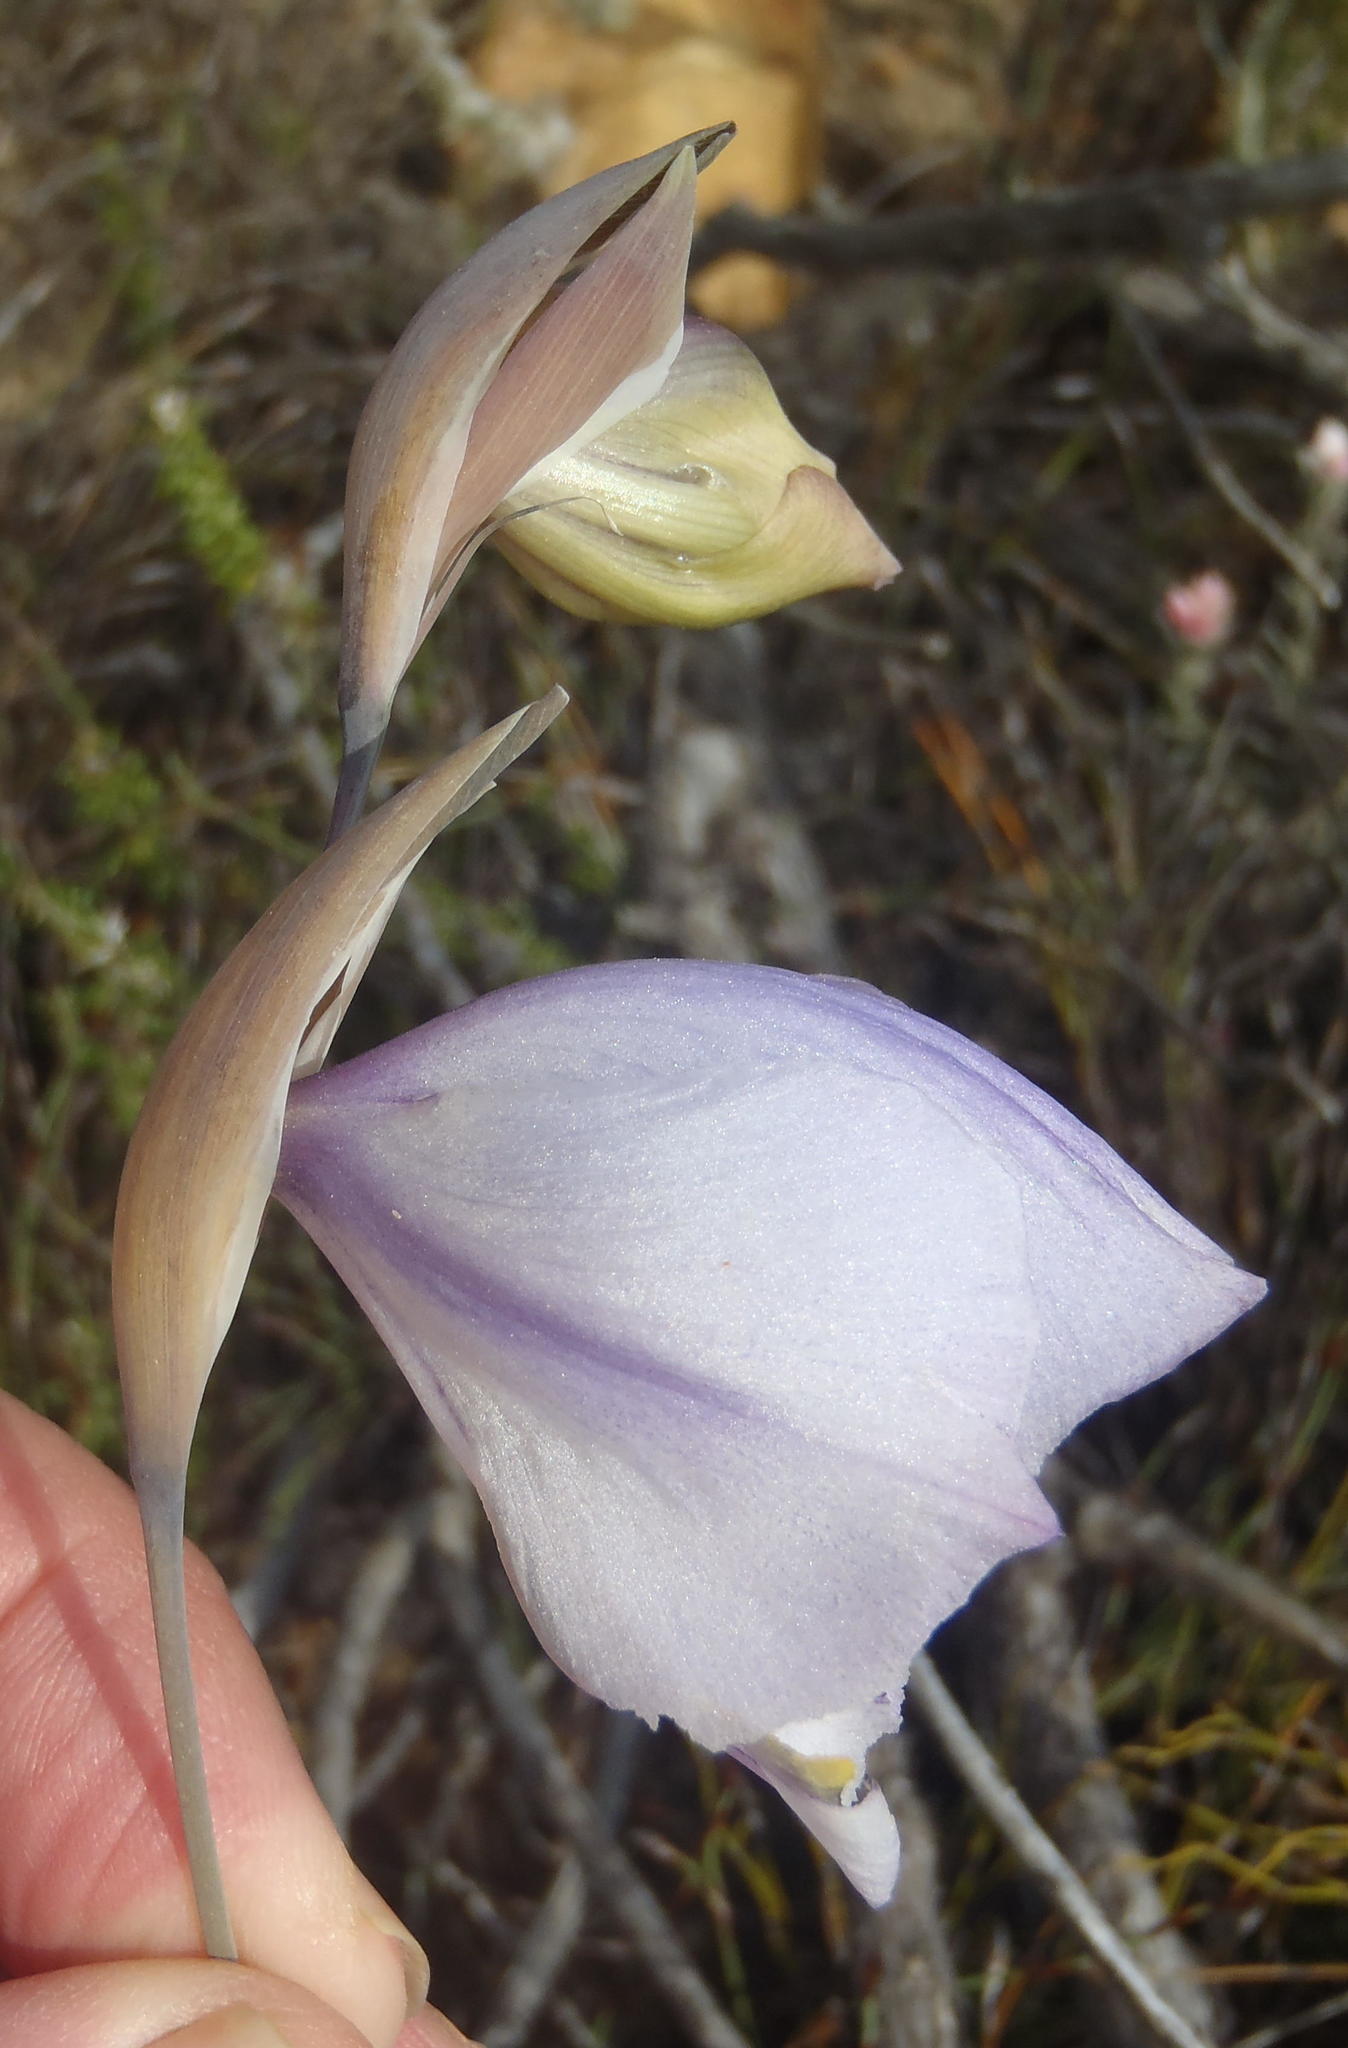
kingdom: Plantae
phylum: Tracheophyta
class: Liliopsida
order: Asparagales
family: Iridaceae
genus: Gladiolus
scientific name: Gladiolus patersoniae
